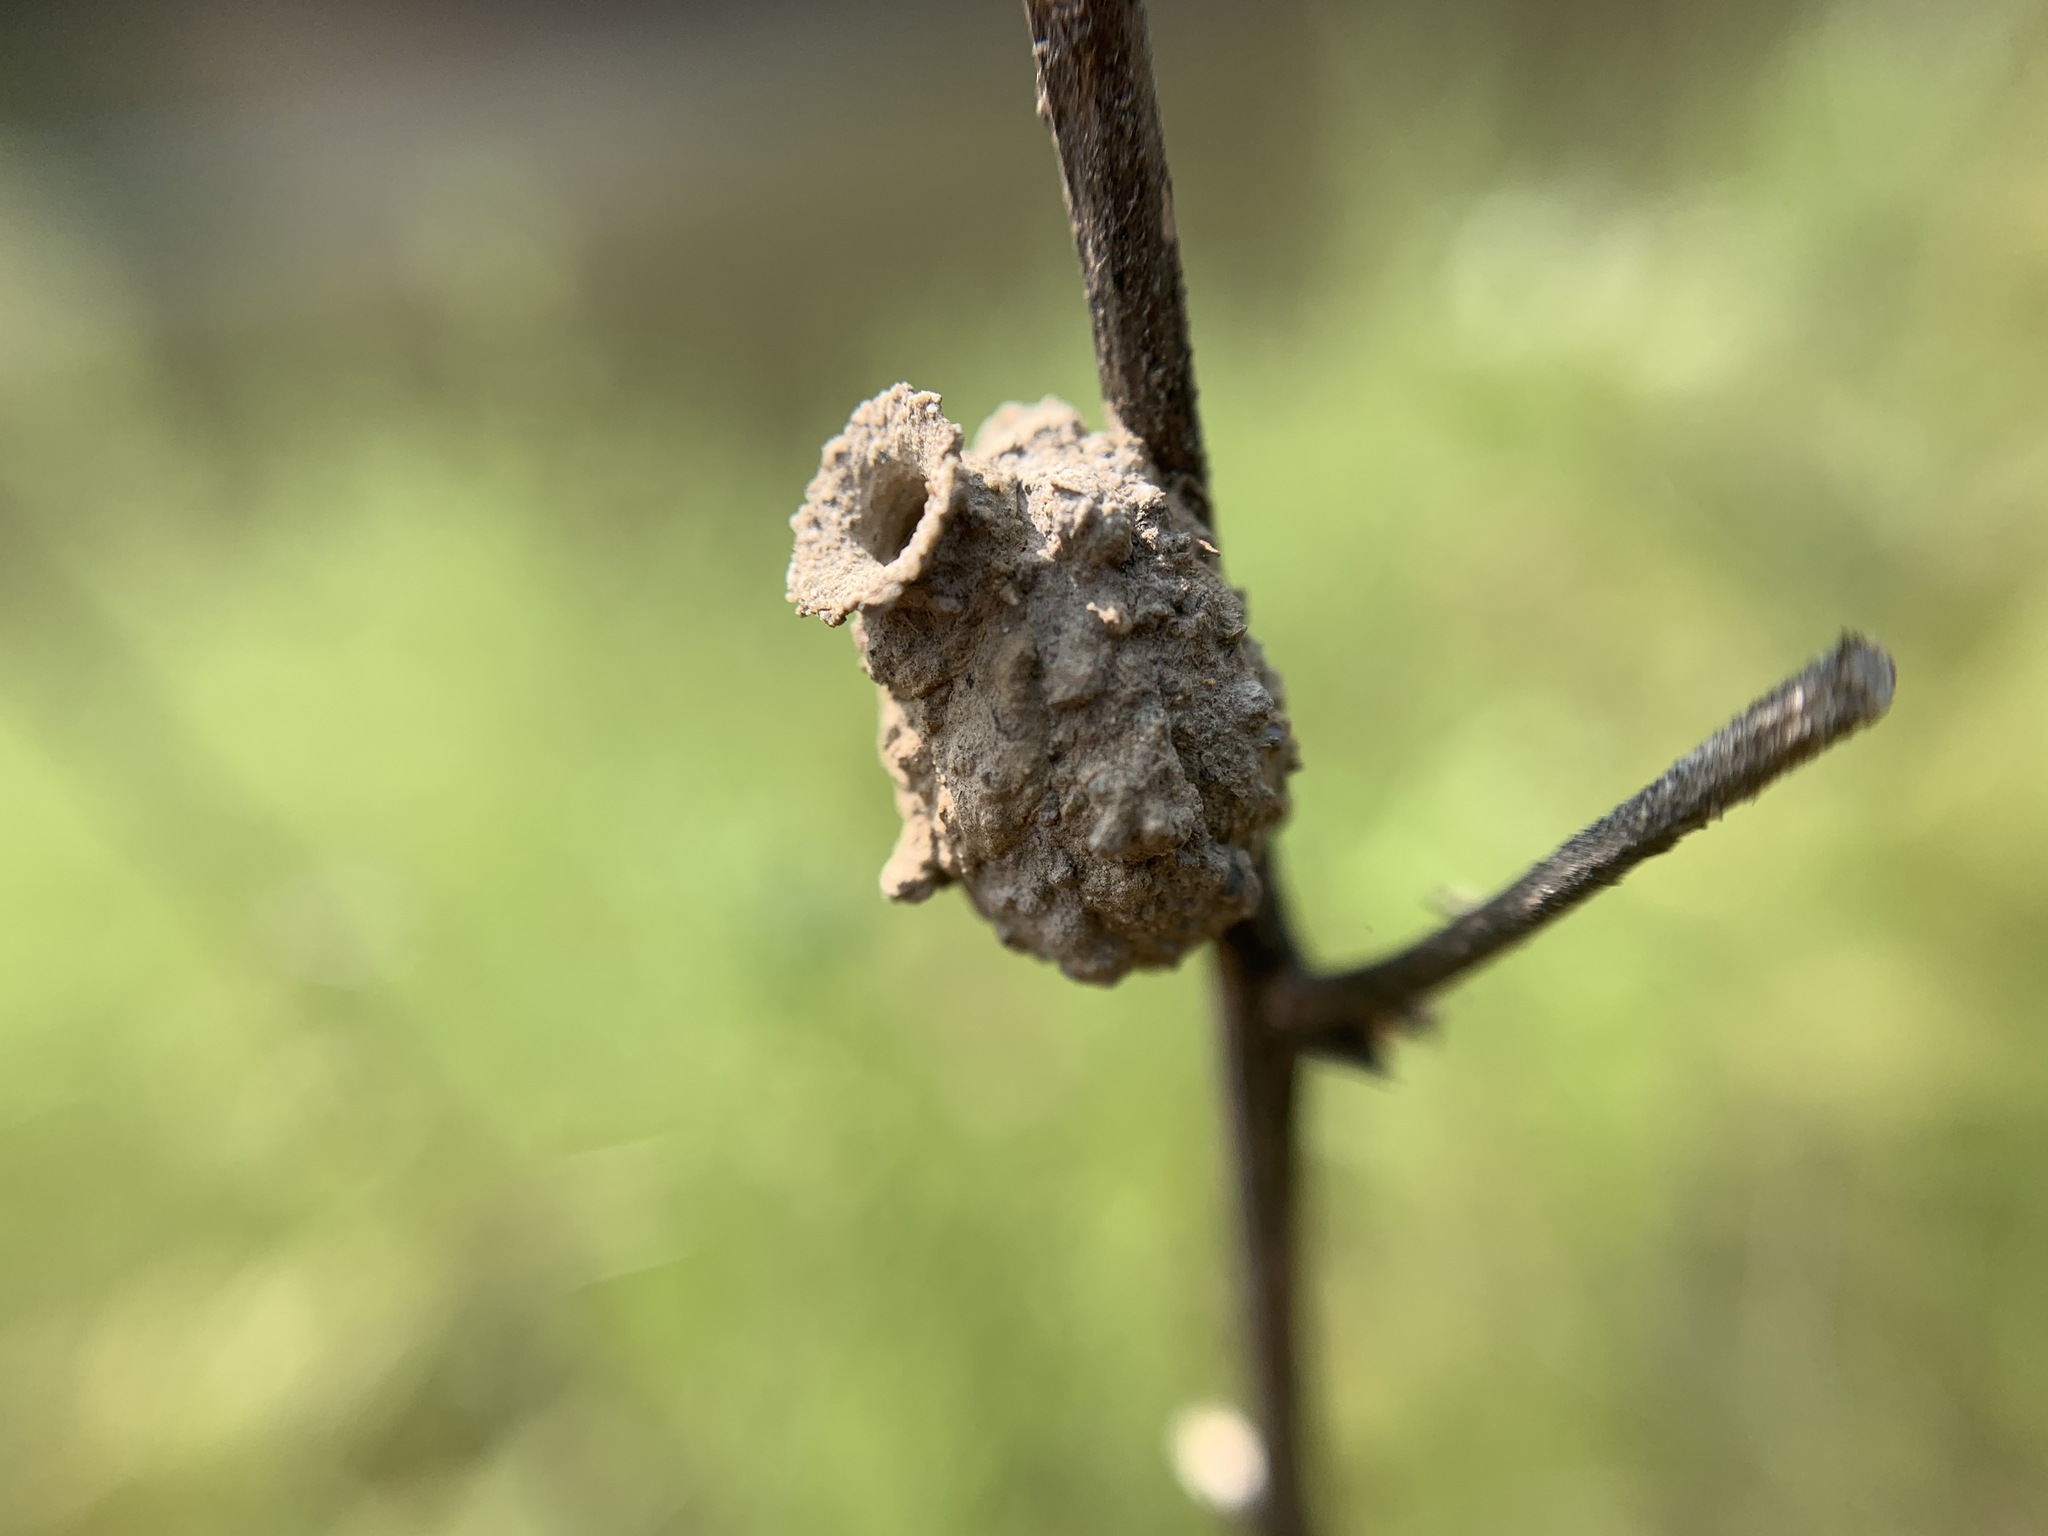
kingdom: Animalia
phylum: Arthropoda
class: Insecta
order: Hymenoptera
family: Vespidae
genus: Eumenes
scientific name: Eumenes
